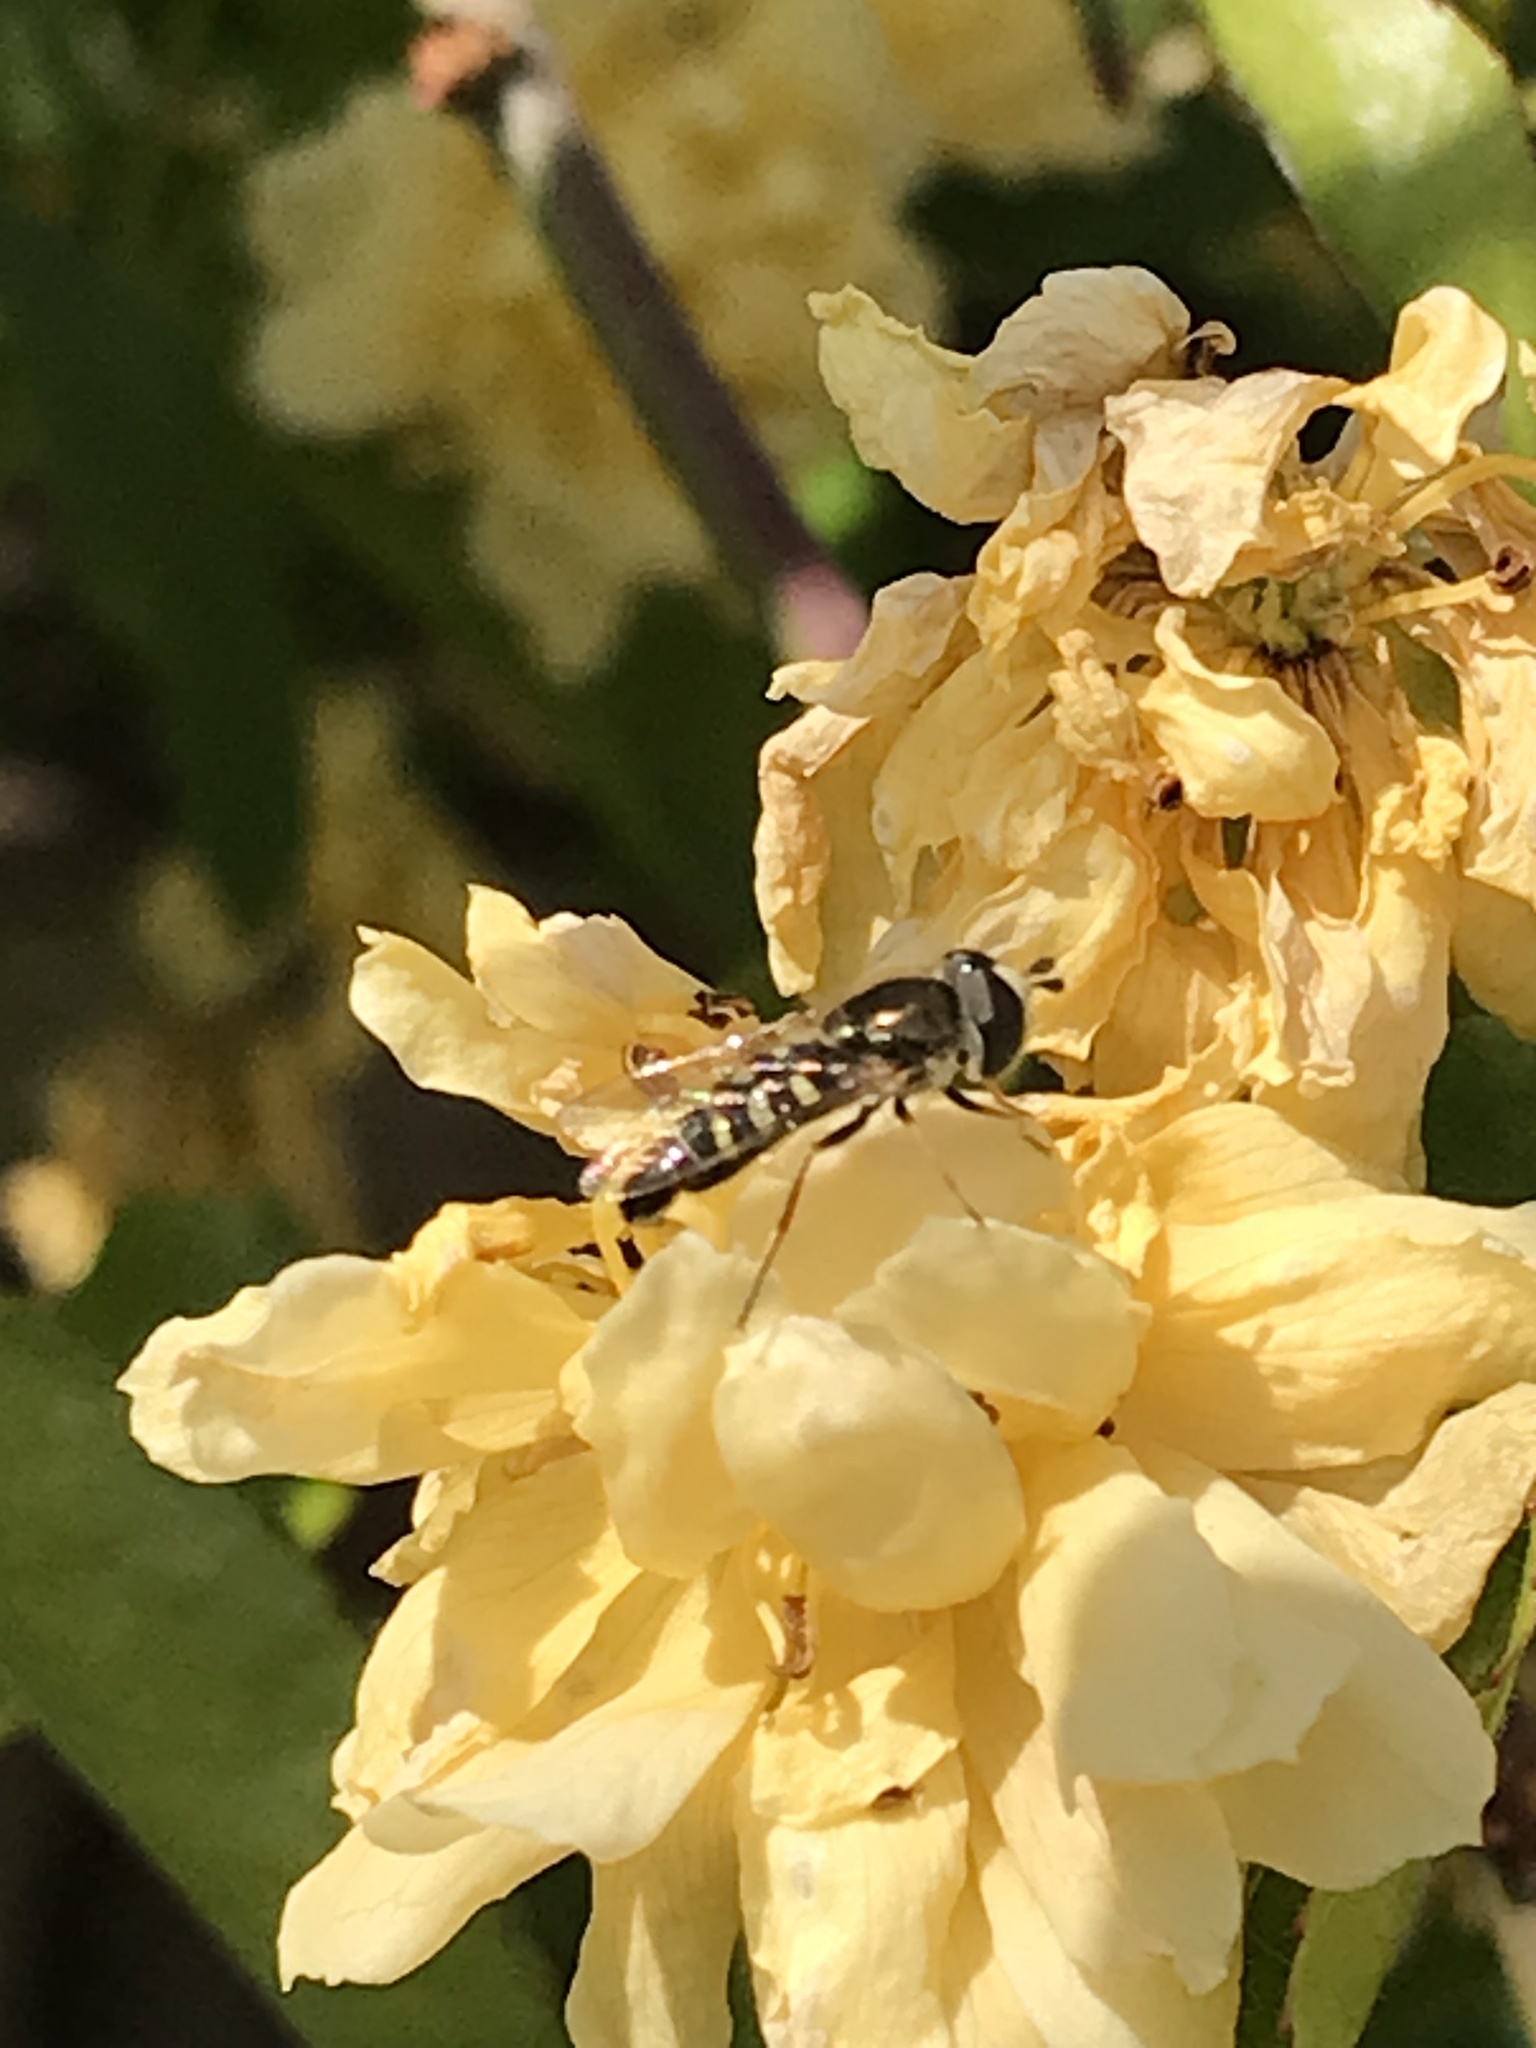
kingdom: Animalia
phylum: Arthropoda
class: Insecta
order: Diptera
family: Syrphidae
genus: Eupeodes
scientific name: Eupeodes volucris
